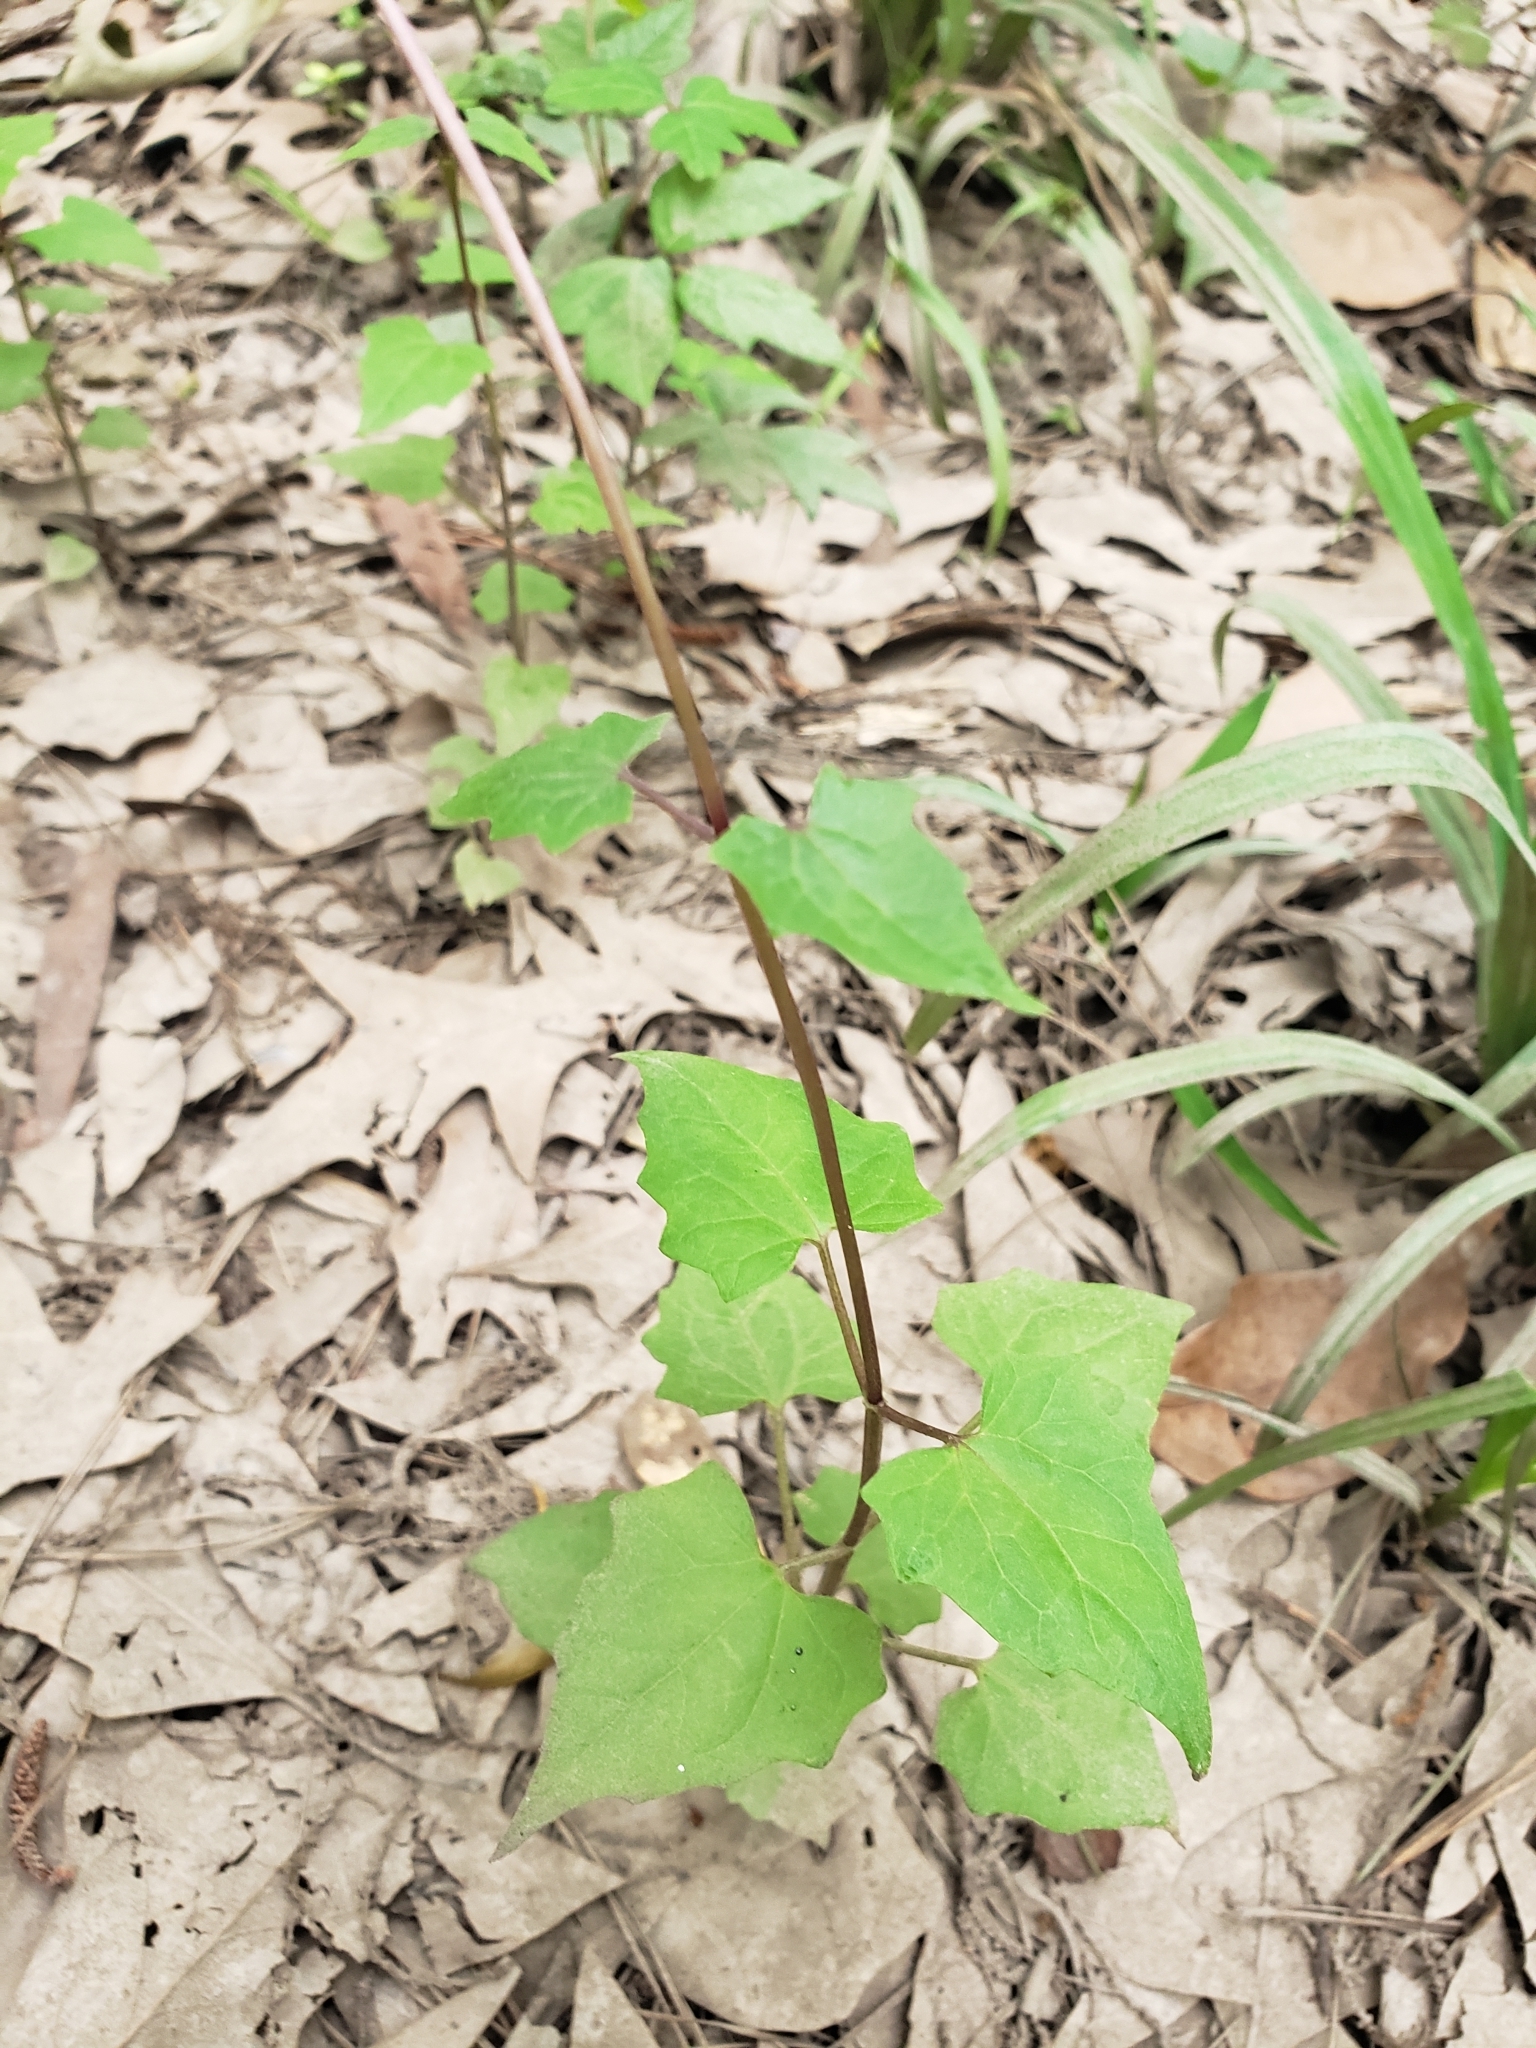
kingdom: Plantae
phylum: Tracheophyta
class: Magnoliopsida
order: Asterales
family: Asteraceae
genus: Mikania
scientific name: Mikania scandens
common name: Climbing hempvine
